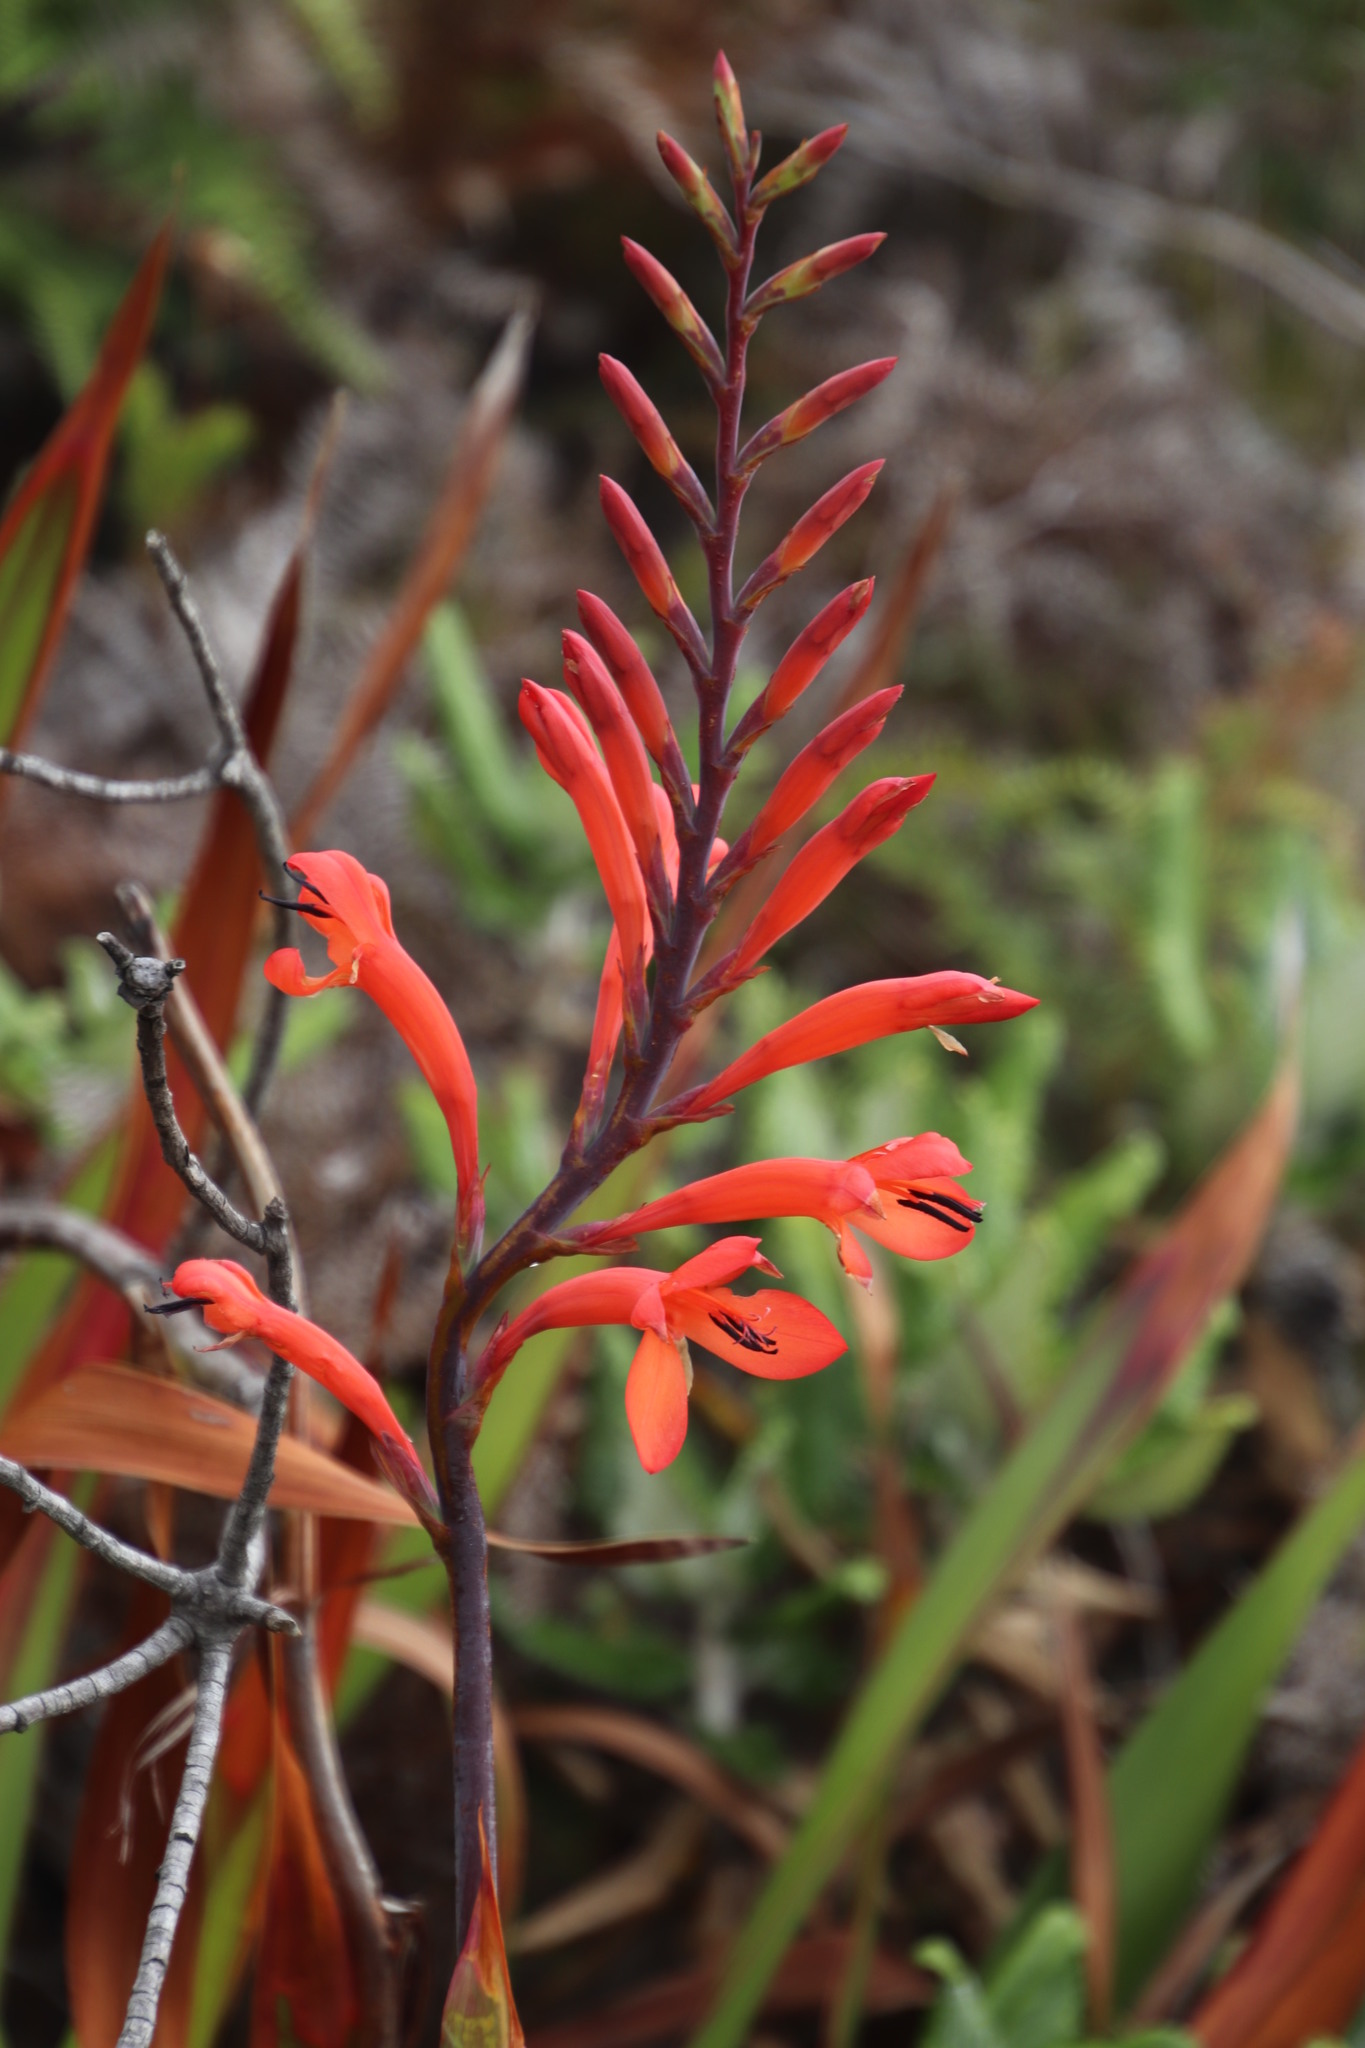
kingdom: Plantae
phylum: Tracheophyta
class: Liliopsida
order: Asparagales
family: Iridaceae
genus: Watsonia
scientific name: Watsonia tabularis
